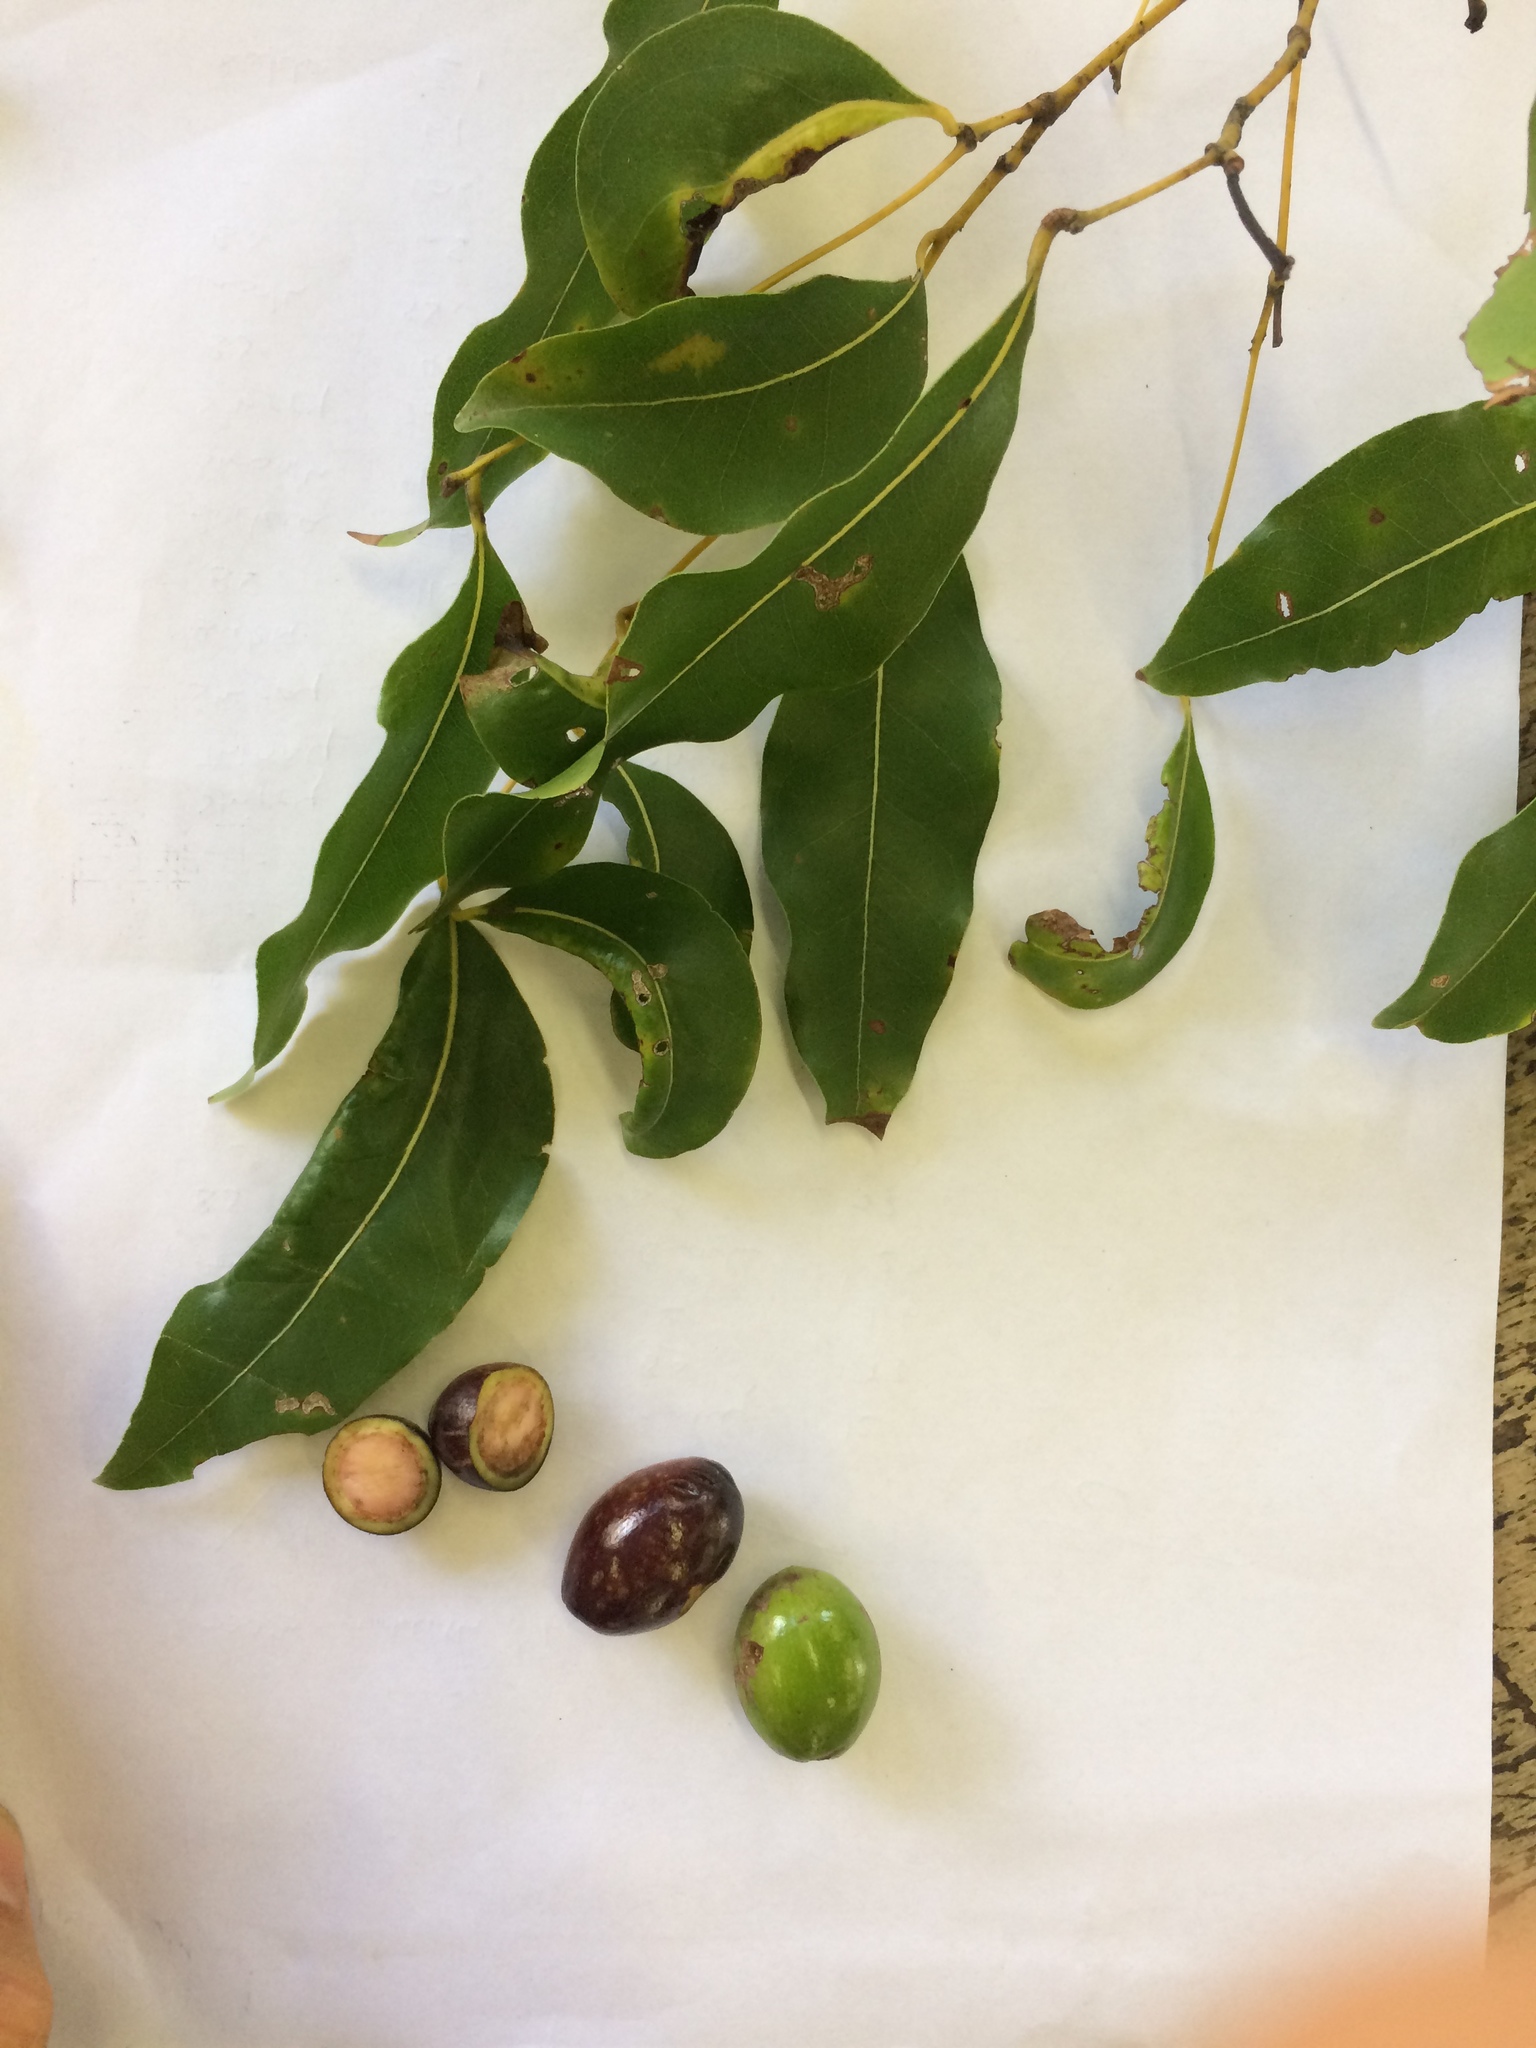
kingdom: Plantae
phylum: Tracheophyta
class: Magnoliopsida
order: Laurales
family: Lauraceae
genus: Endiandra
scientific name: Endiandra sieberi
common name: Corkwood
